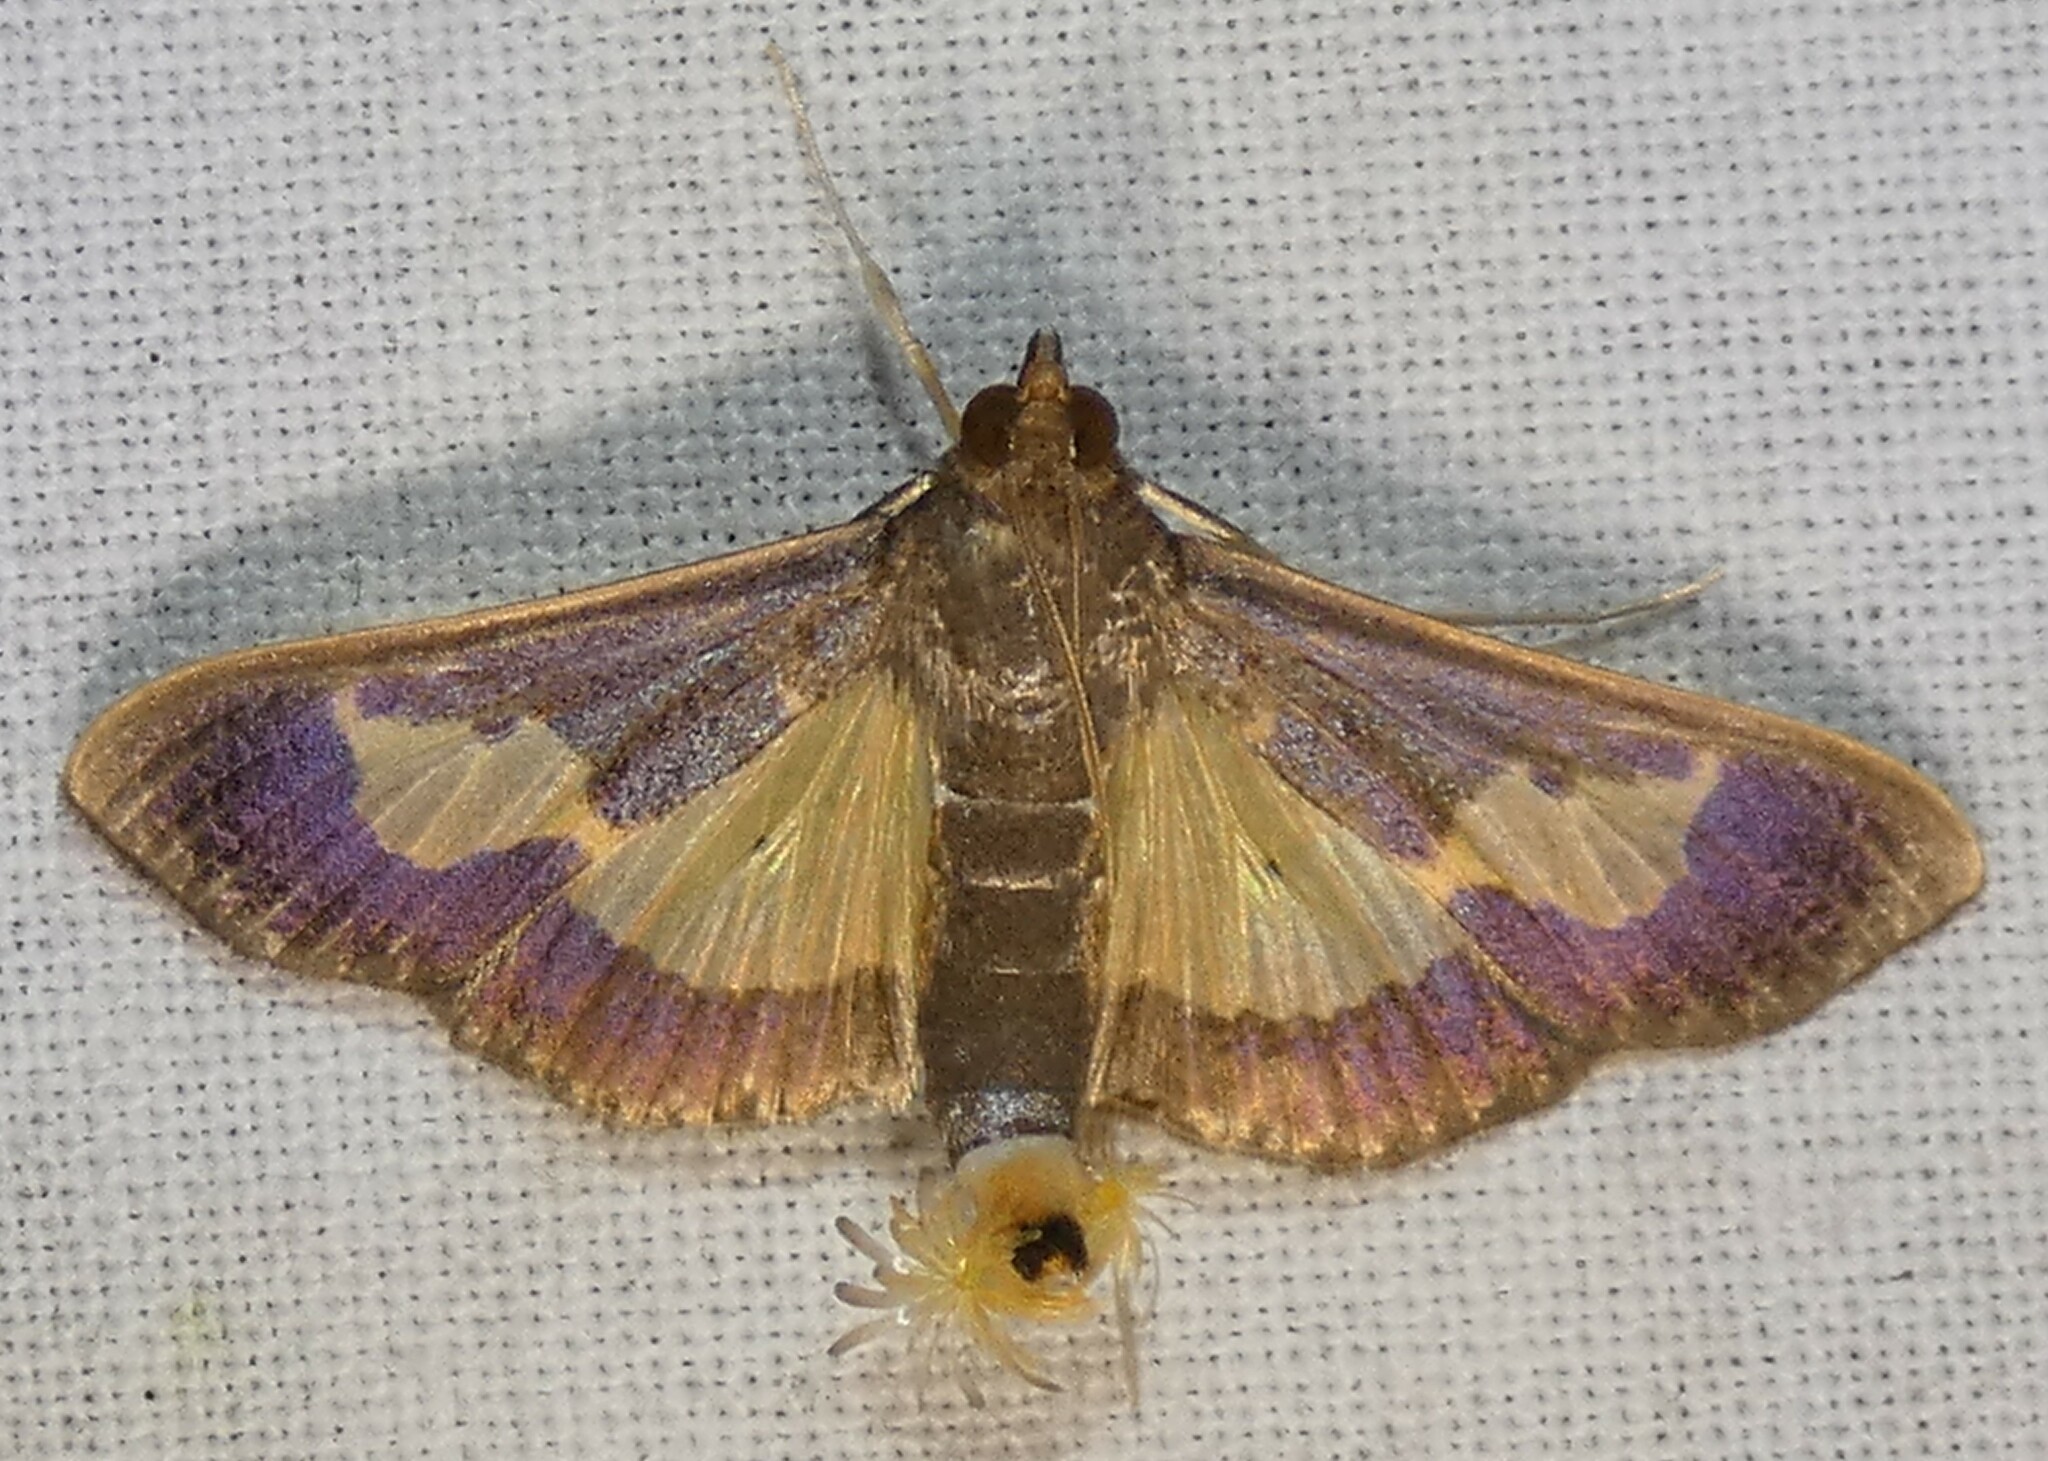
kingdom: Animalia
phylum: Arthropoda
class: Insecta
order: Lepidoptera
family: Crambidae
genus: Cryptographis
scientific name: Cryptographis nitidalis
